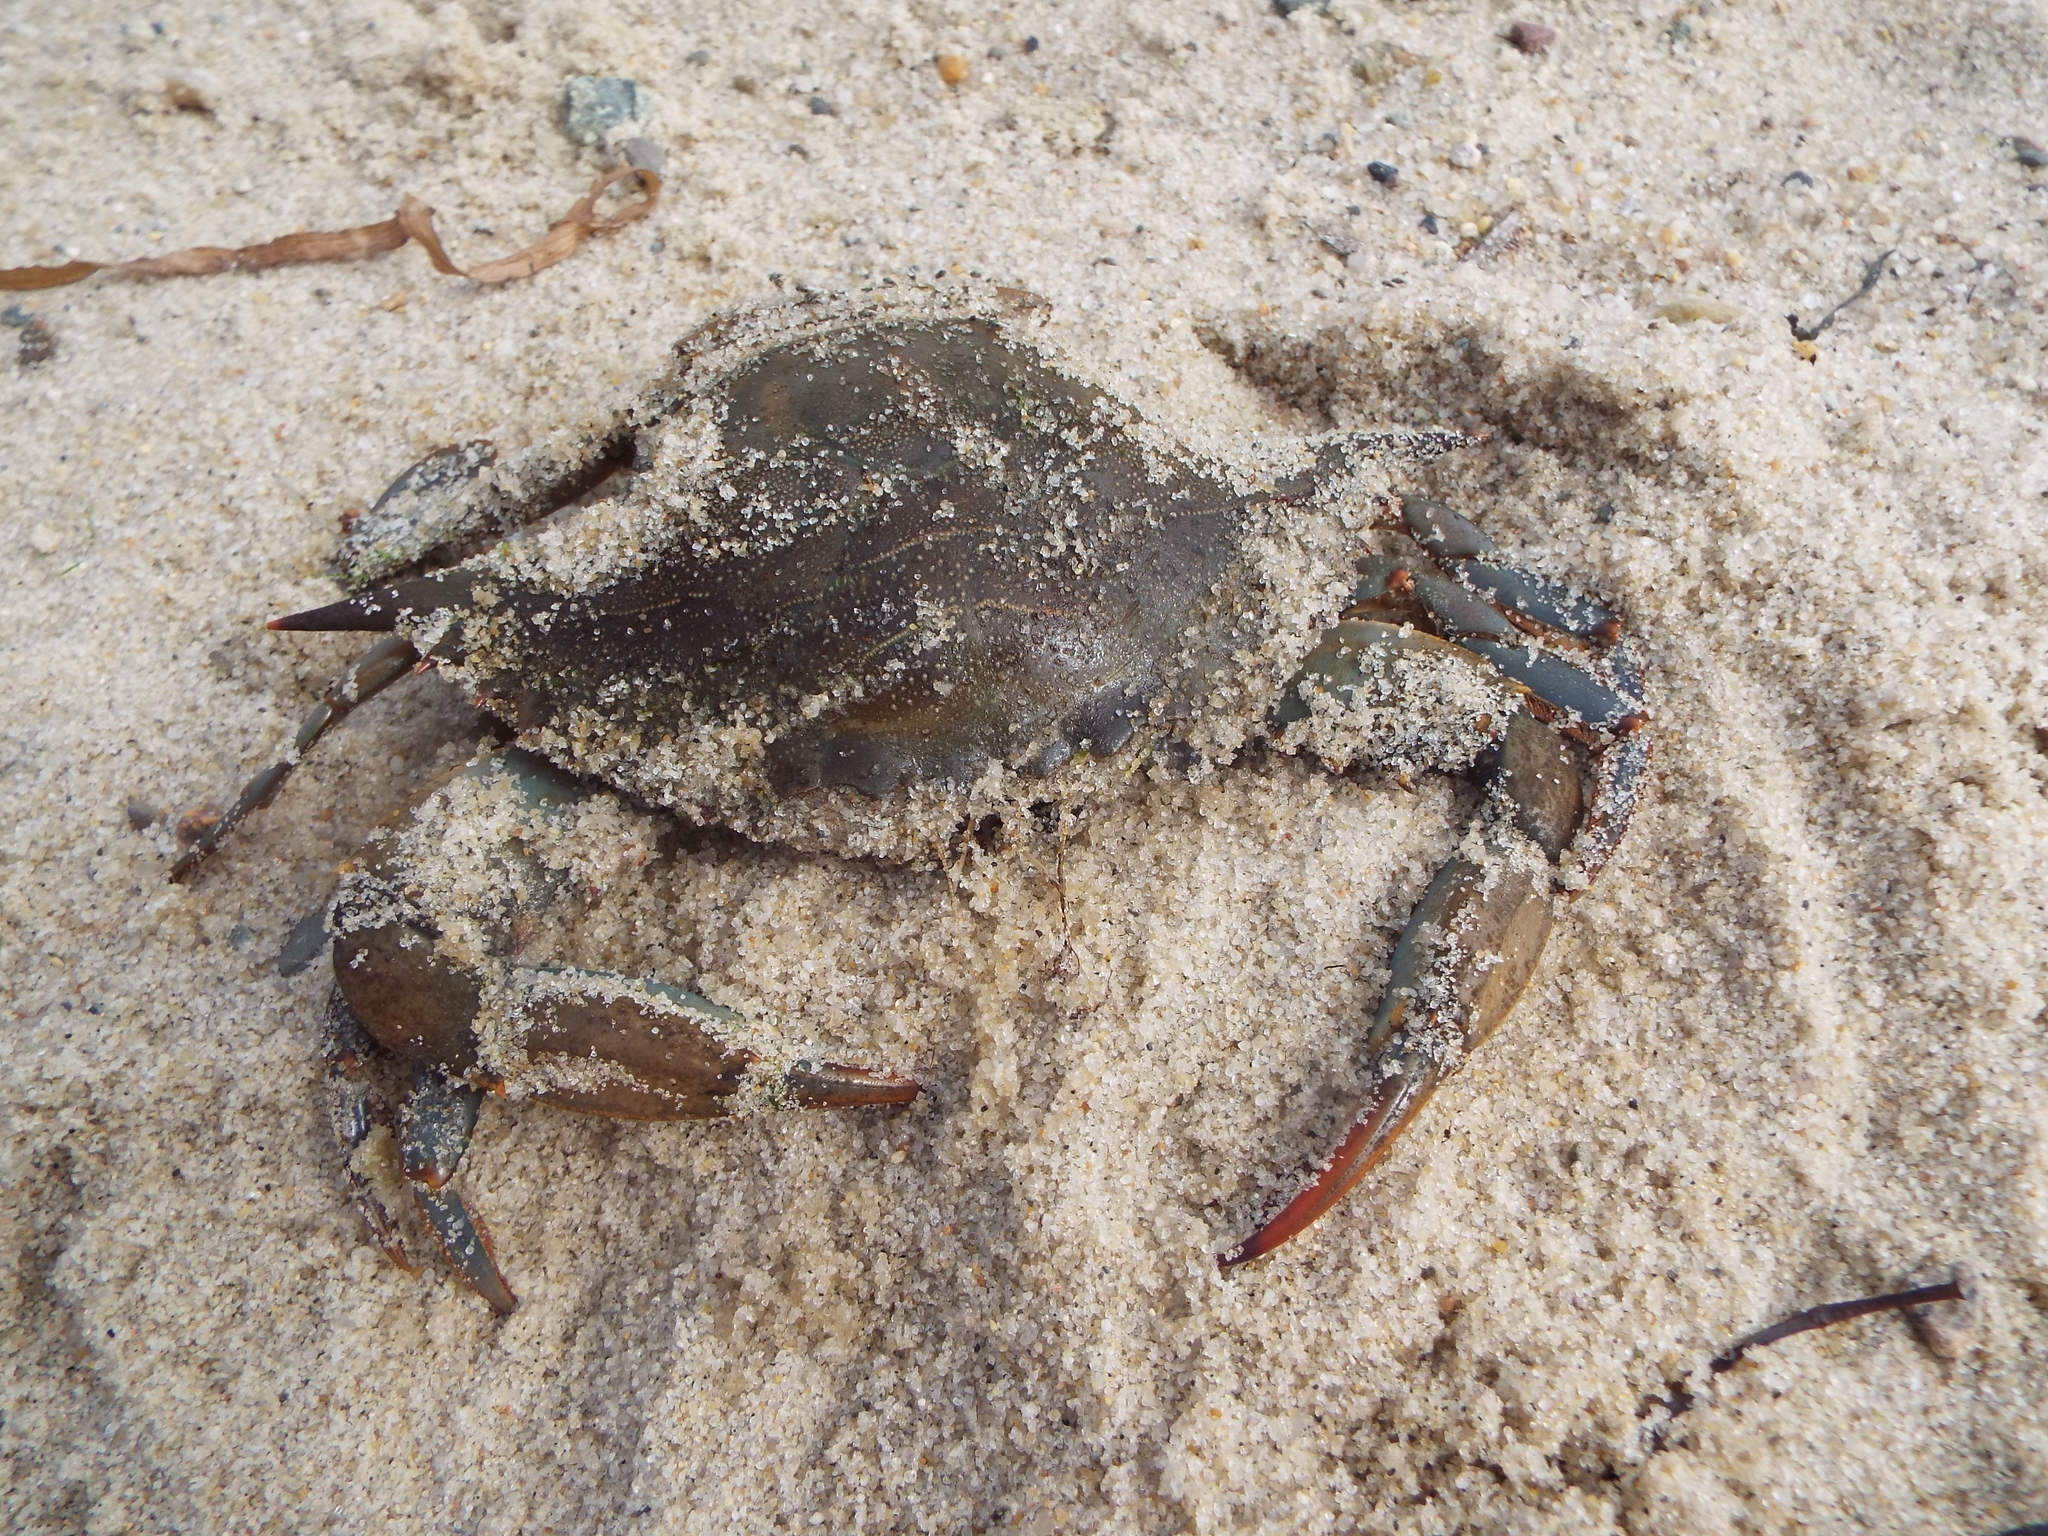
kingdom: Animalia
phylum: Arthropoda
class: Malacostraca
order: Decapoda
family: Portunidae
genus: Callinectes
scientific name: Callinectes sapidus
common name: Blue crab
